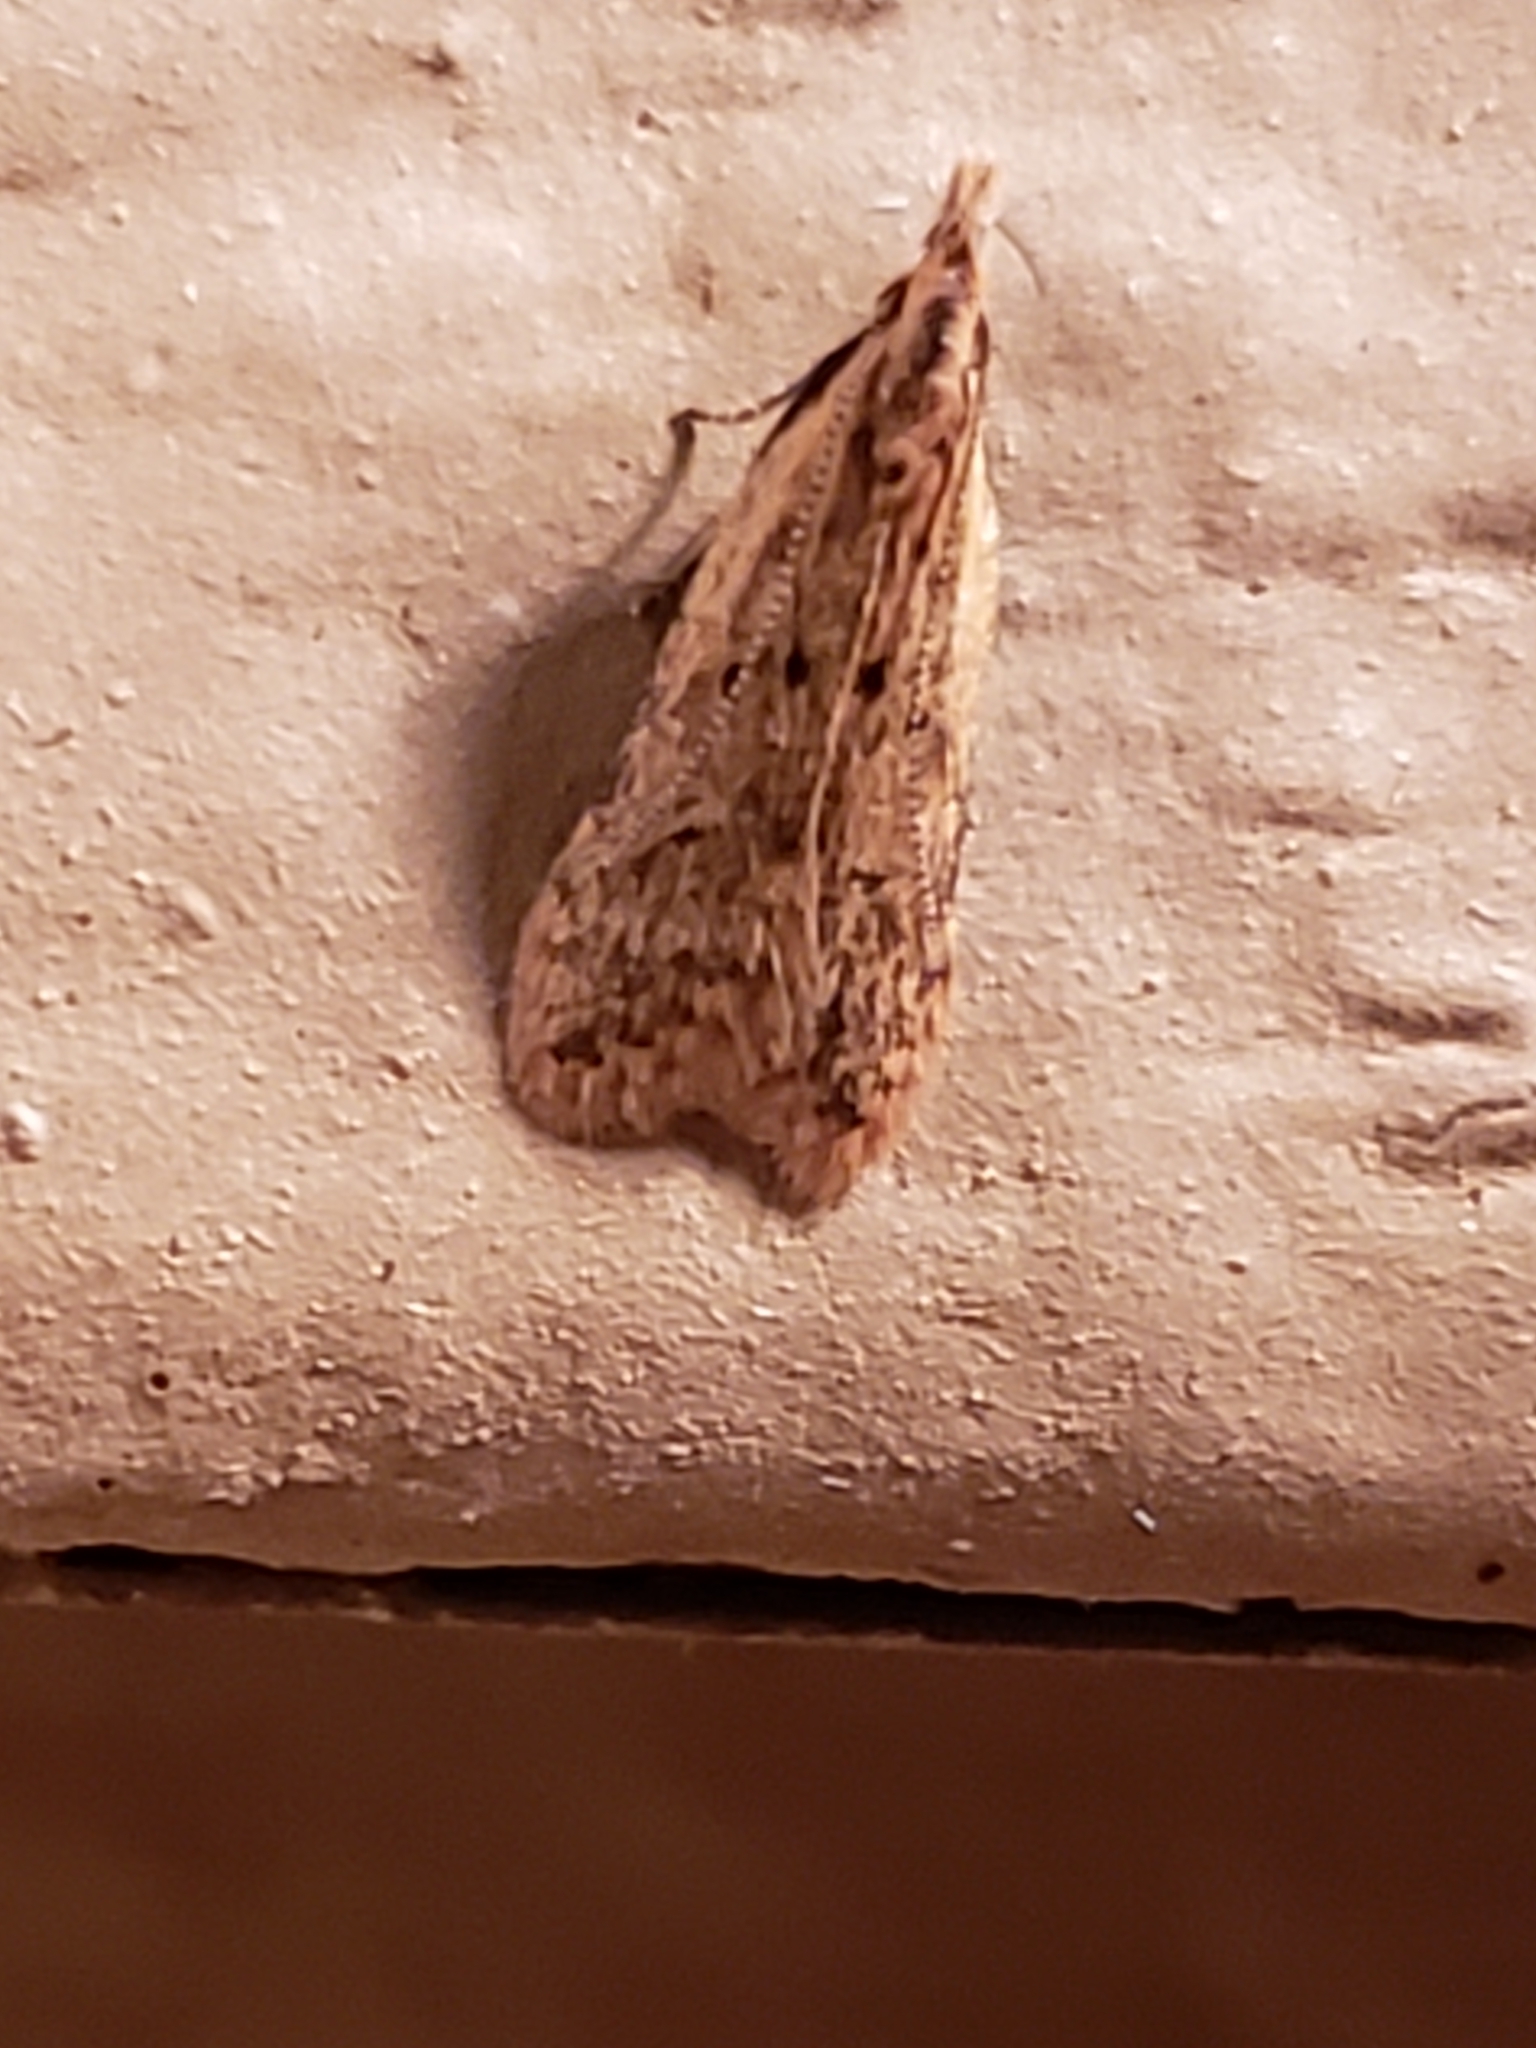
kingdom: Animalia
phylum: Arthropoda
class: Insecta
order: Lepidoptera
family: Gelechiidae
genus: Dichomeris
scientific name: Dichomeris punctipennella
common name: Many-spotted dichomeris moth
